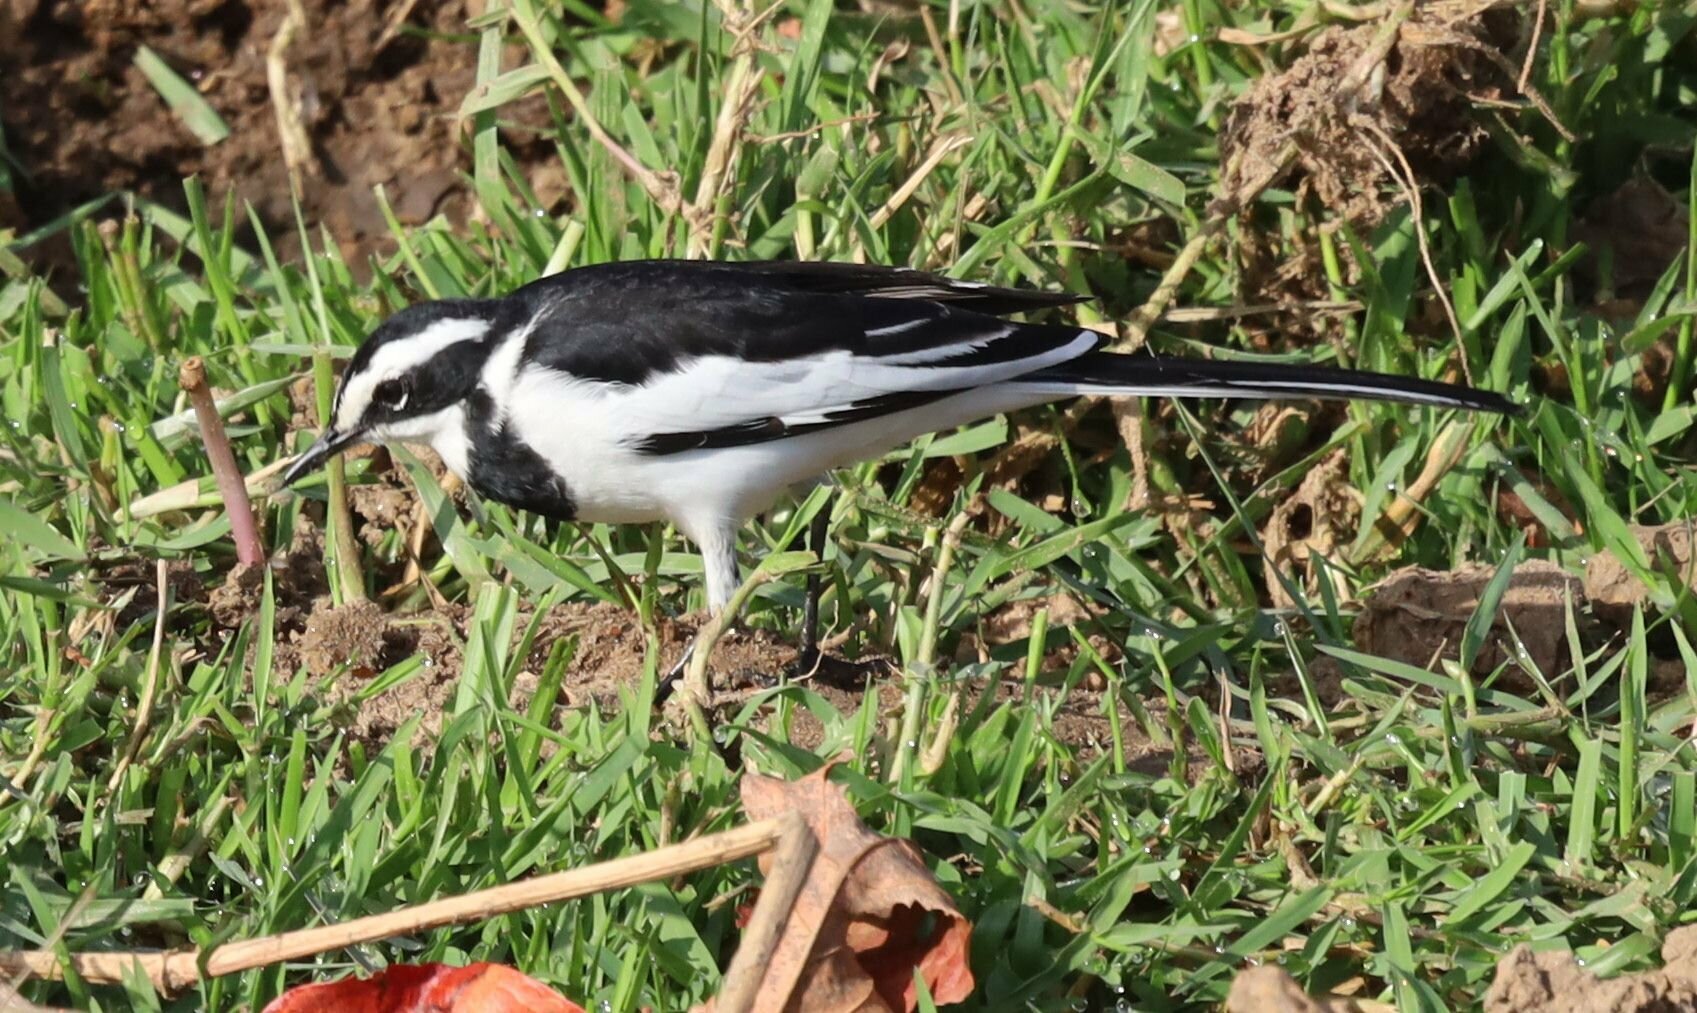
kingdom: Animalia
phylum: Chordata
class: Aves
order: Passeriformes
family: Motacillidae
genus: Motacilla
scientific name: Motacilla aguimp
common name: African pied wagtail
